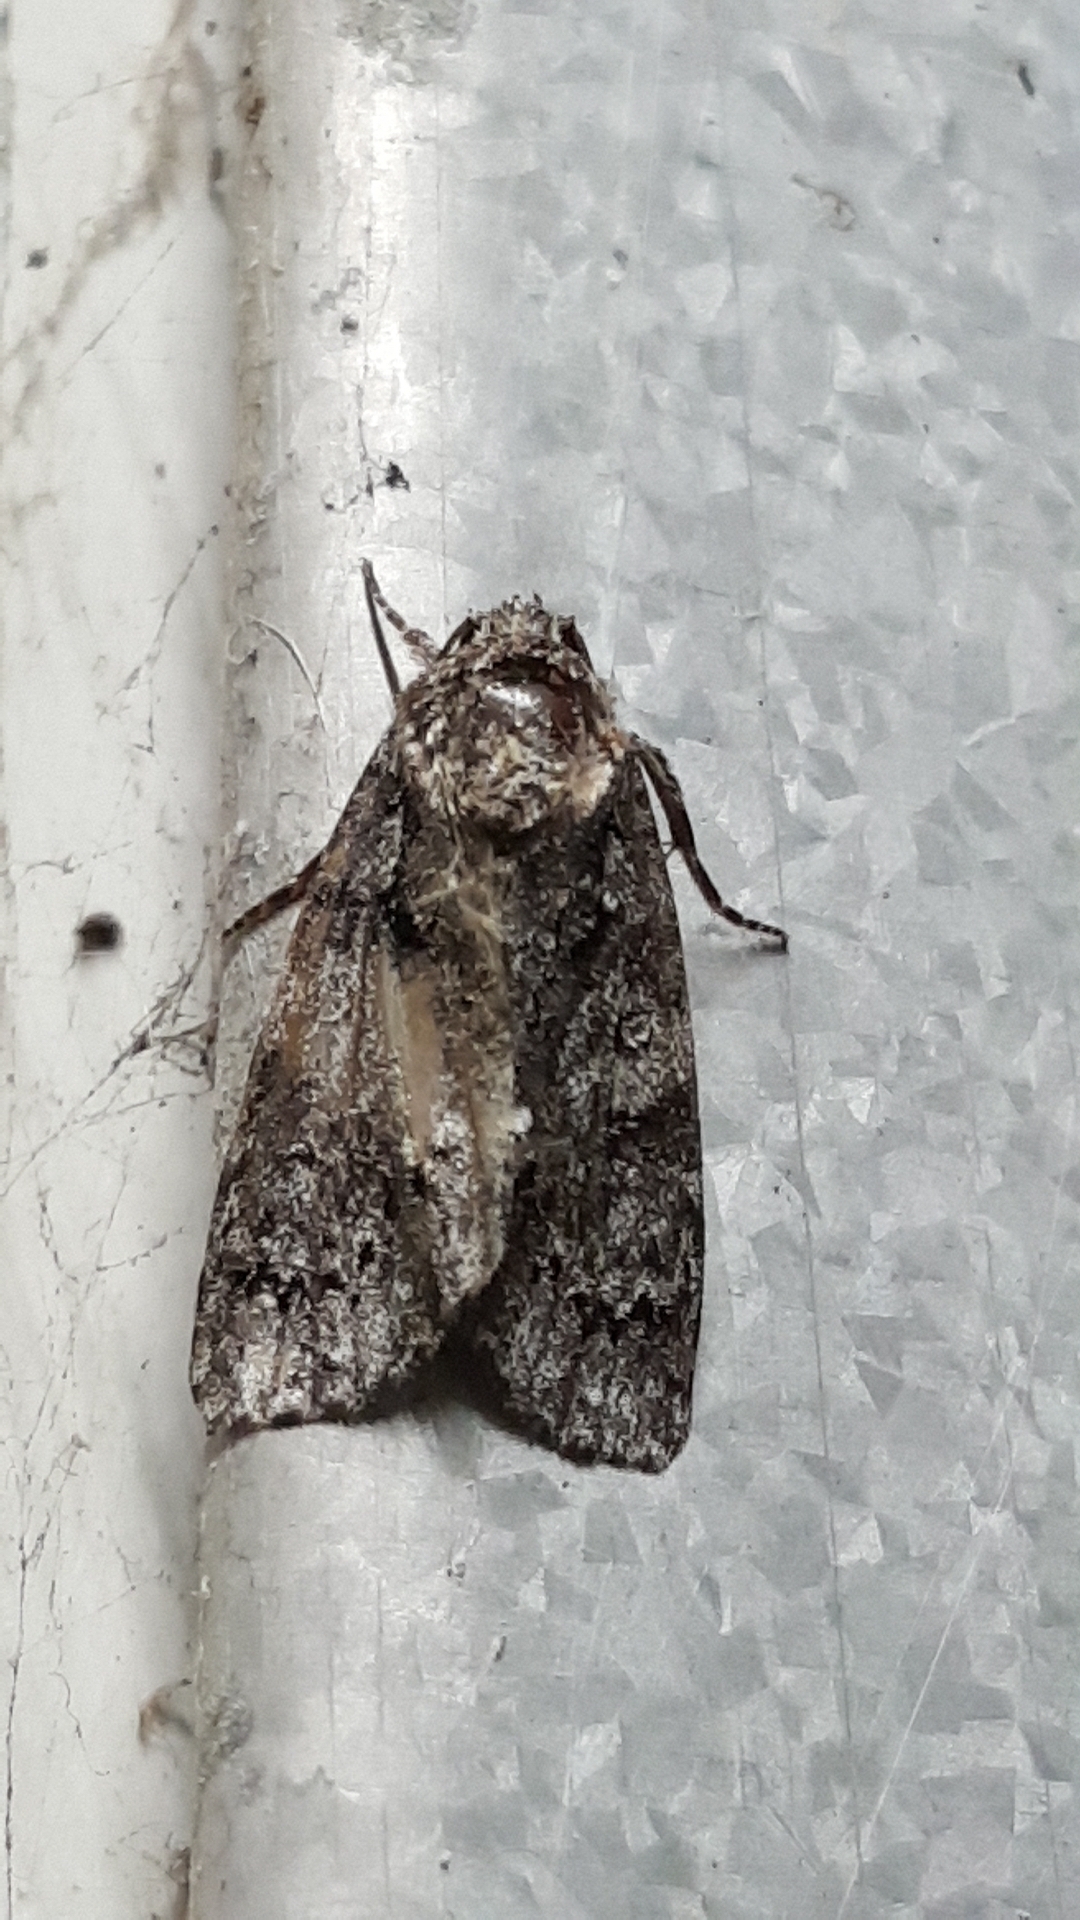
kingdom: Animalia
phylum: Arthropoda
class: Insecta
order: Lepidoptera
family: Noctuidae
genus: Acronicta
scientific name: Acronicta rumicis
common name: Knot grass
